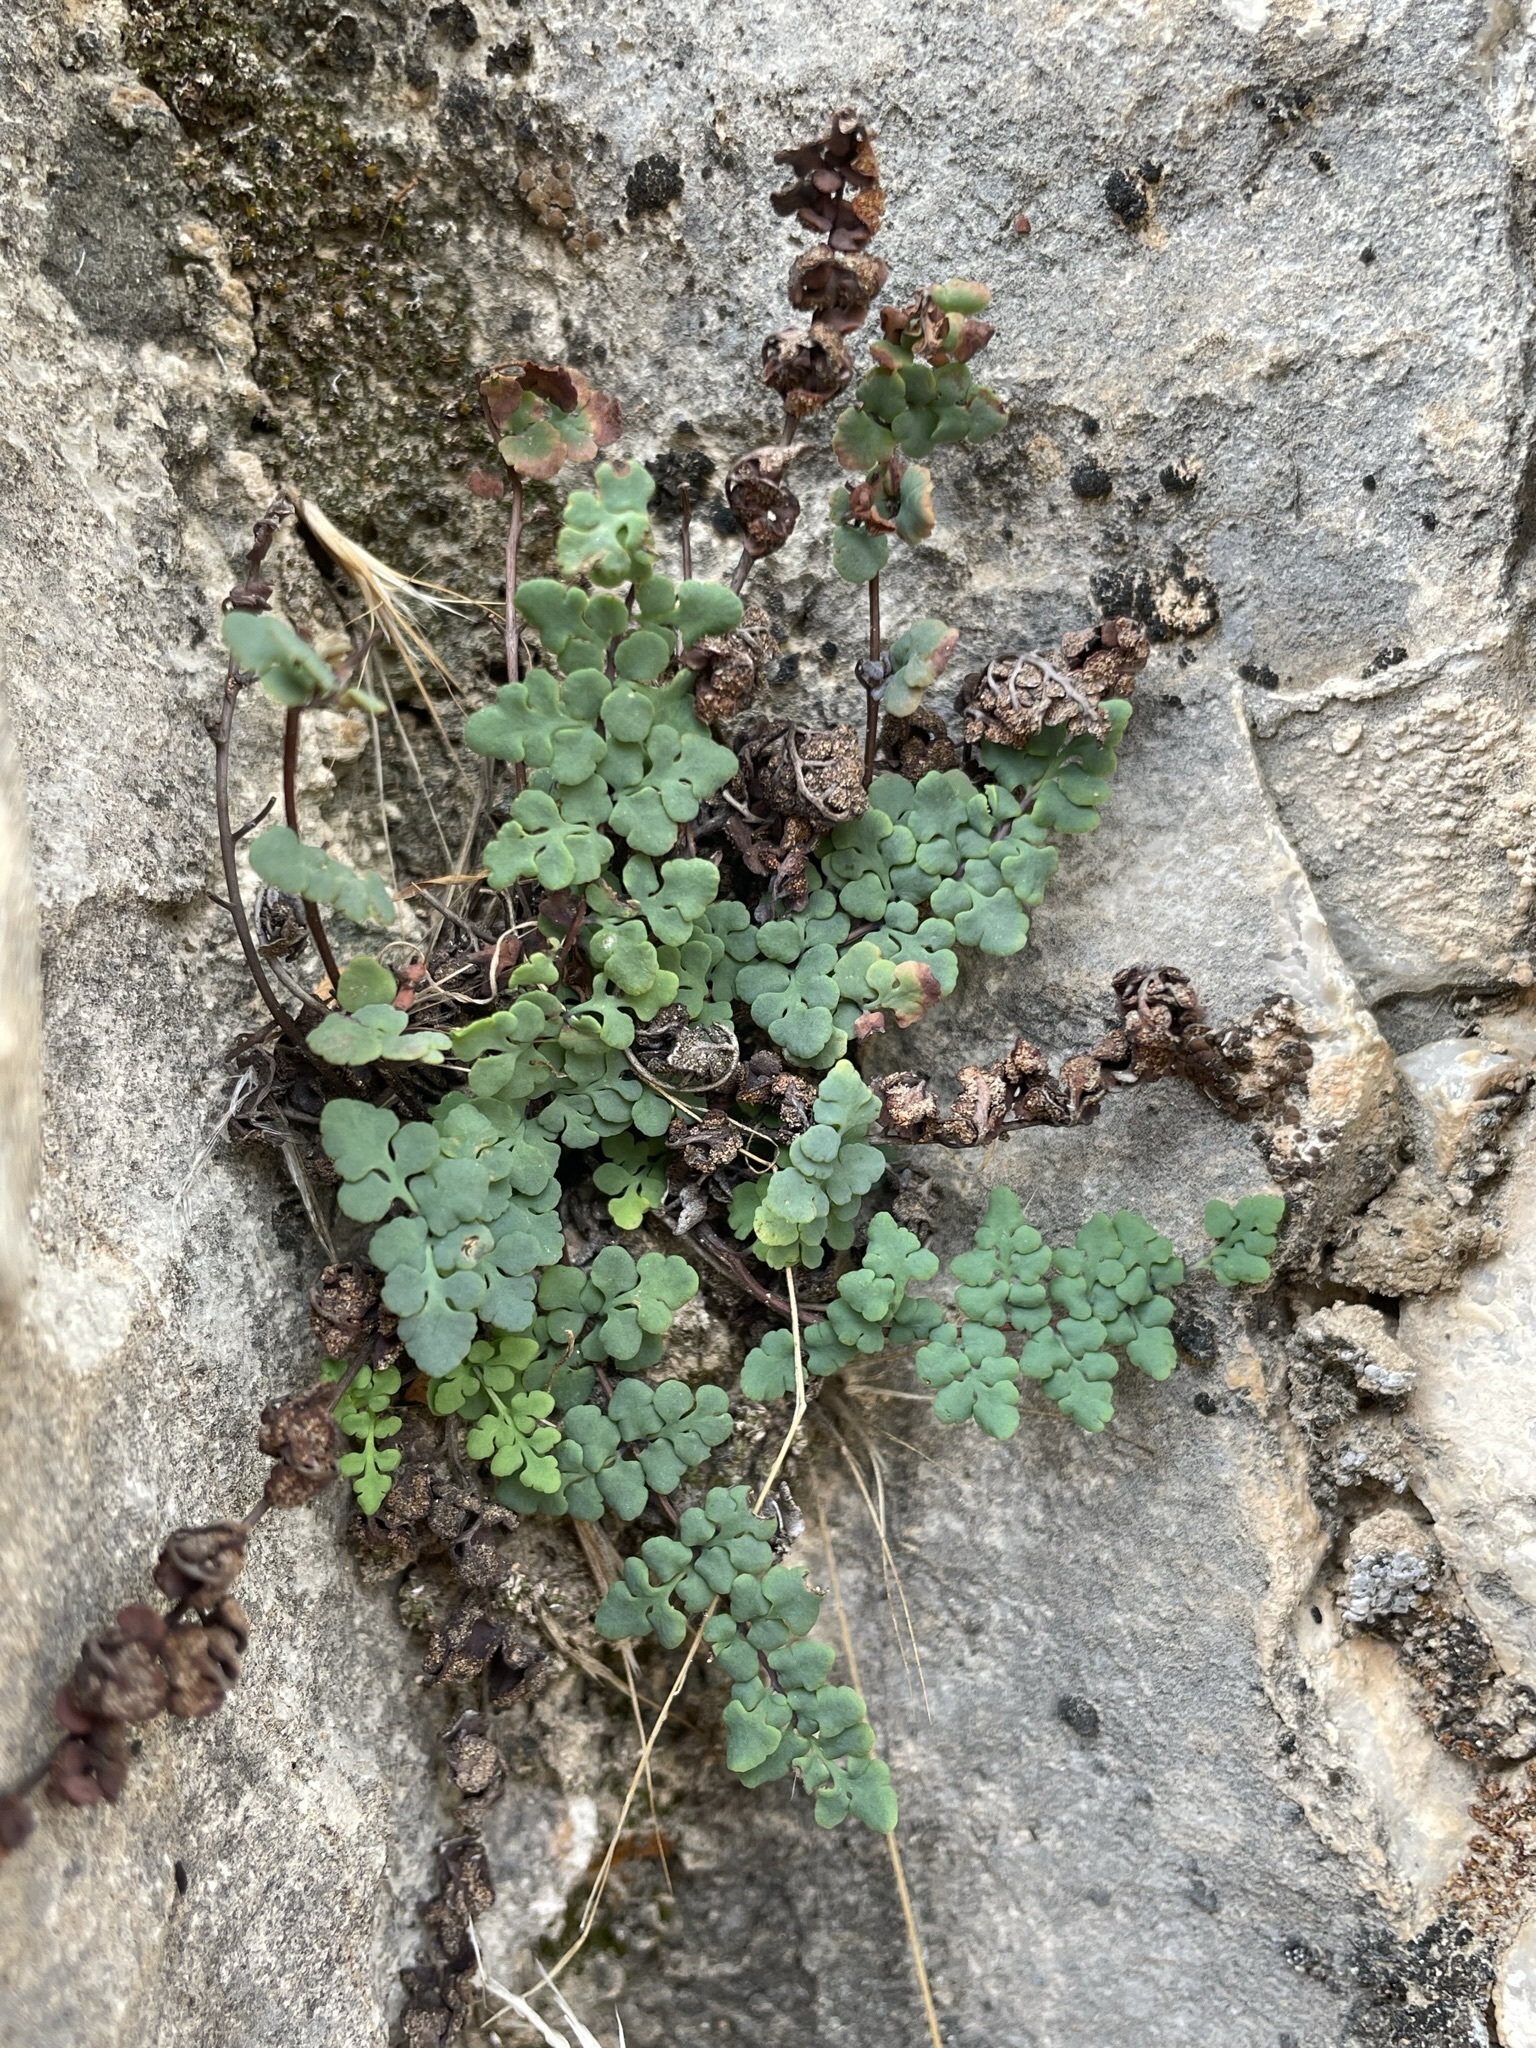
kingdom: Plantae
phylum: Tracheophyta
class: Polypodiopsida
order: Polypodiales
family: Pteridaceae
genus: Argyrochosma
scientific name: Argyrochosma jonesii
